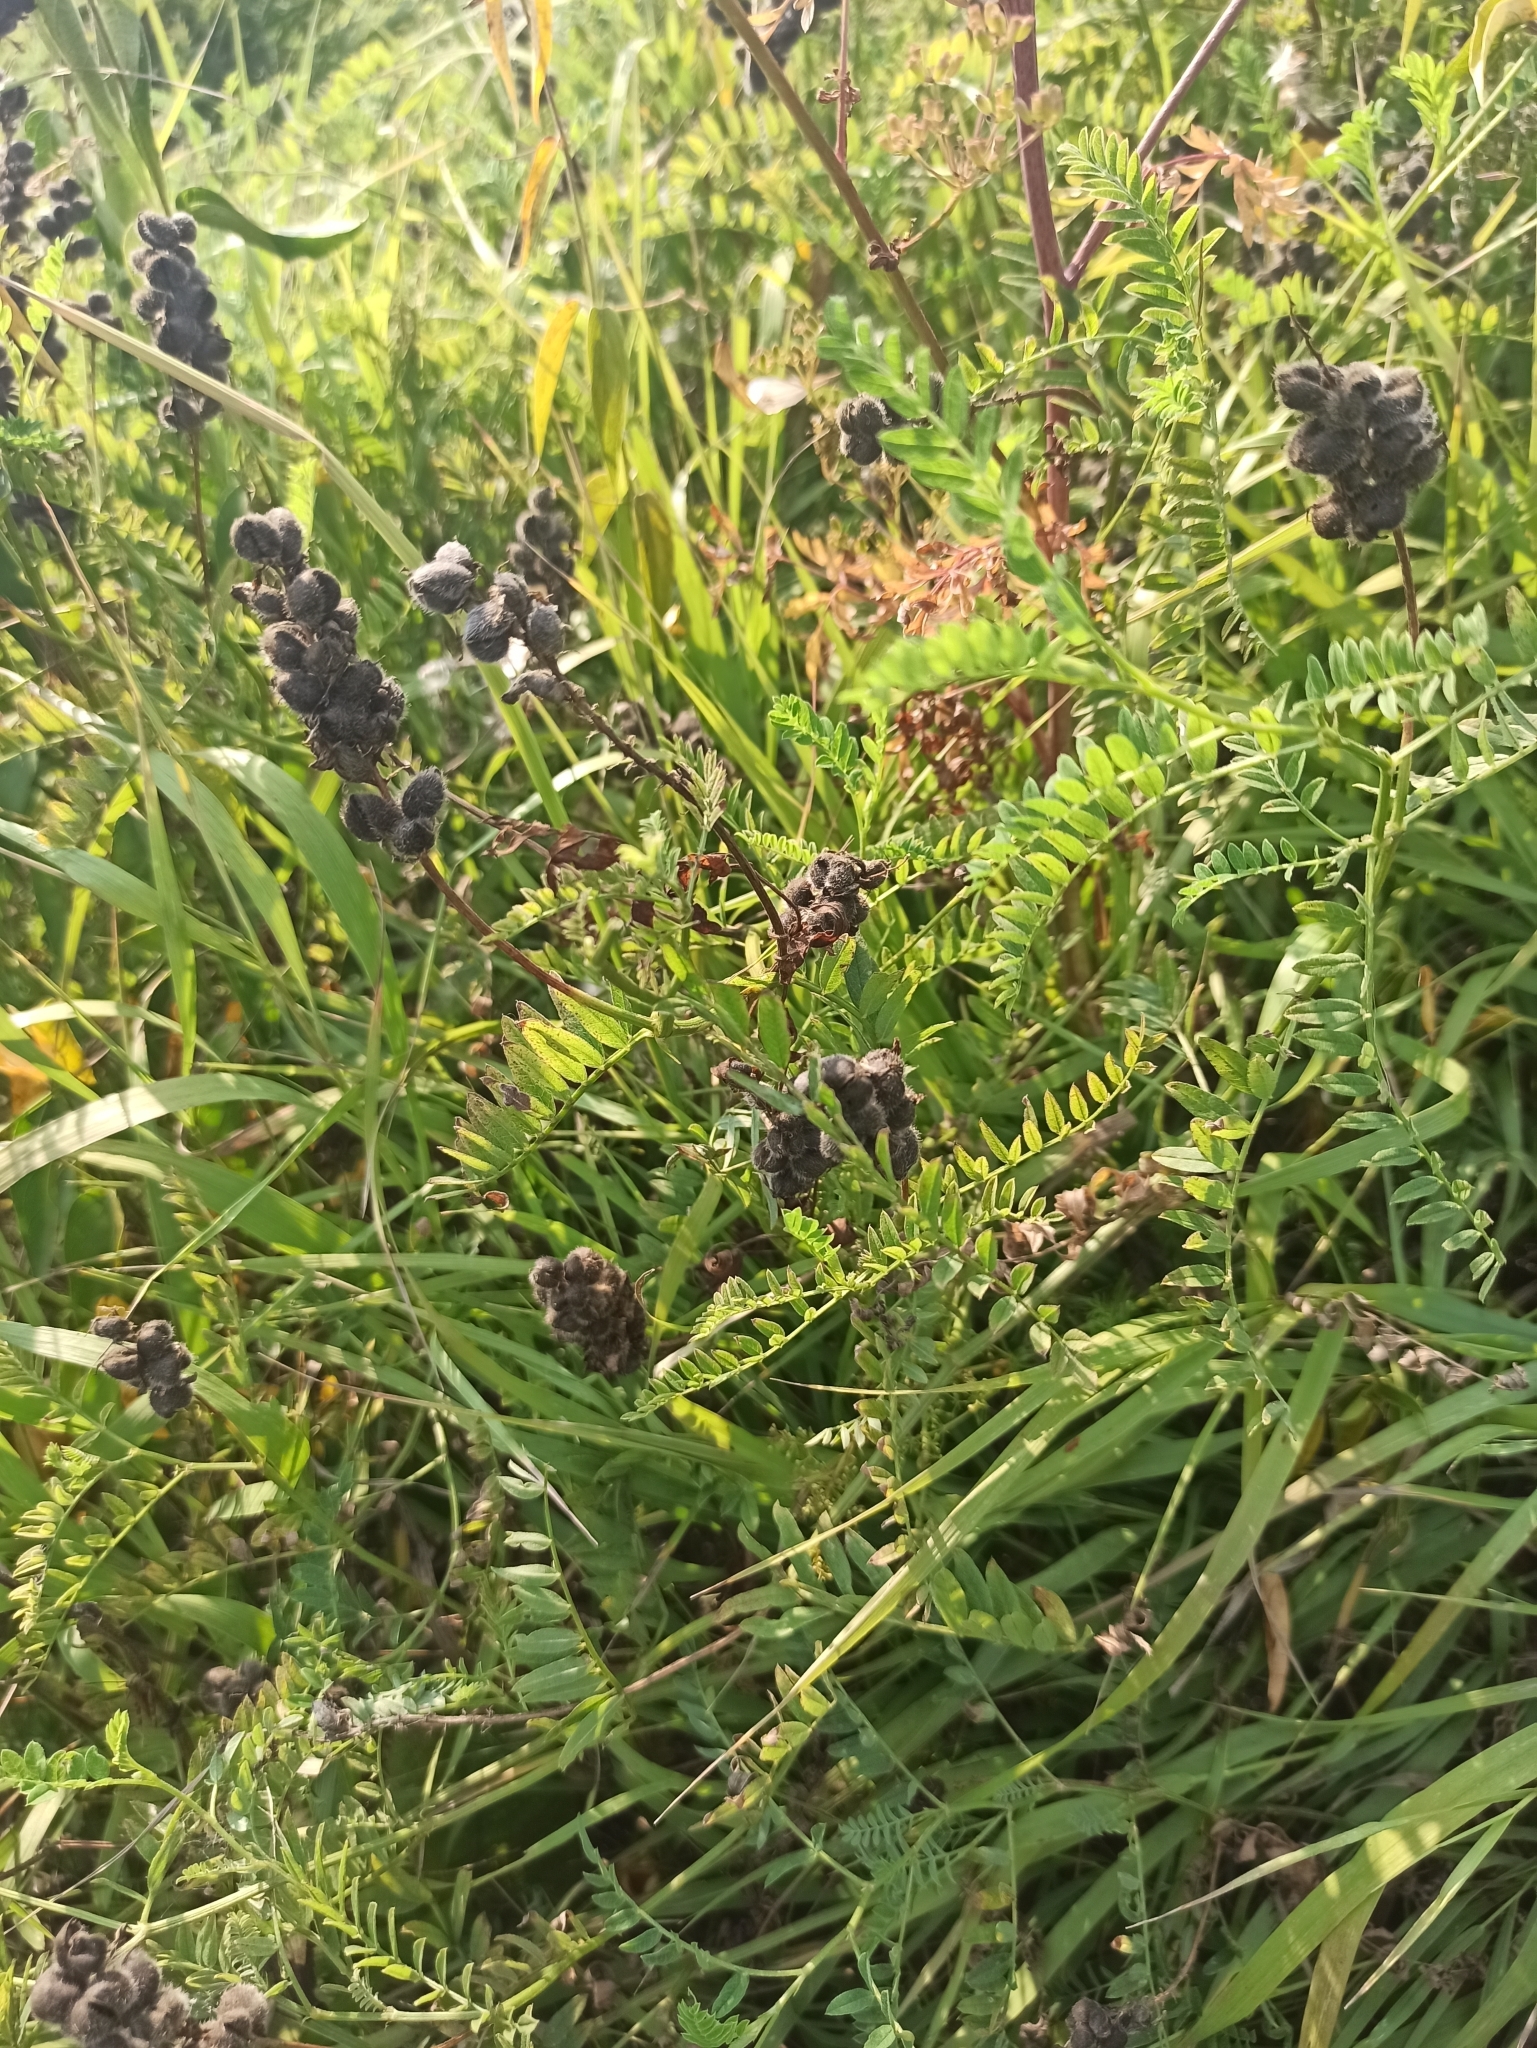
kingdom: Plantae
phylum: Tracheophyta
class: Magnoliopsida
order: Fabales
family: Fabaceae
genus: Astragalus
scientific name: Astragalus cicer
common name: Chick-pea milk-vetch
